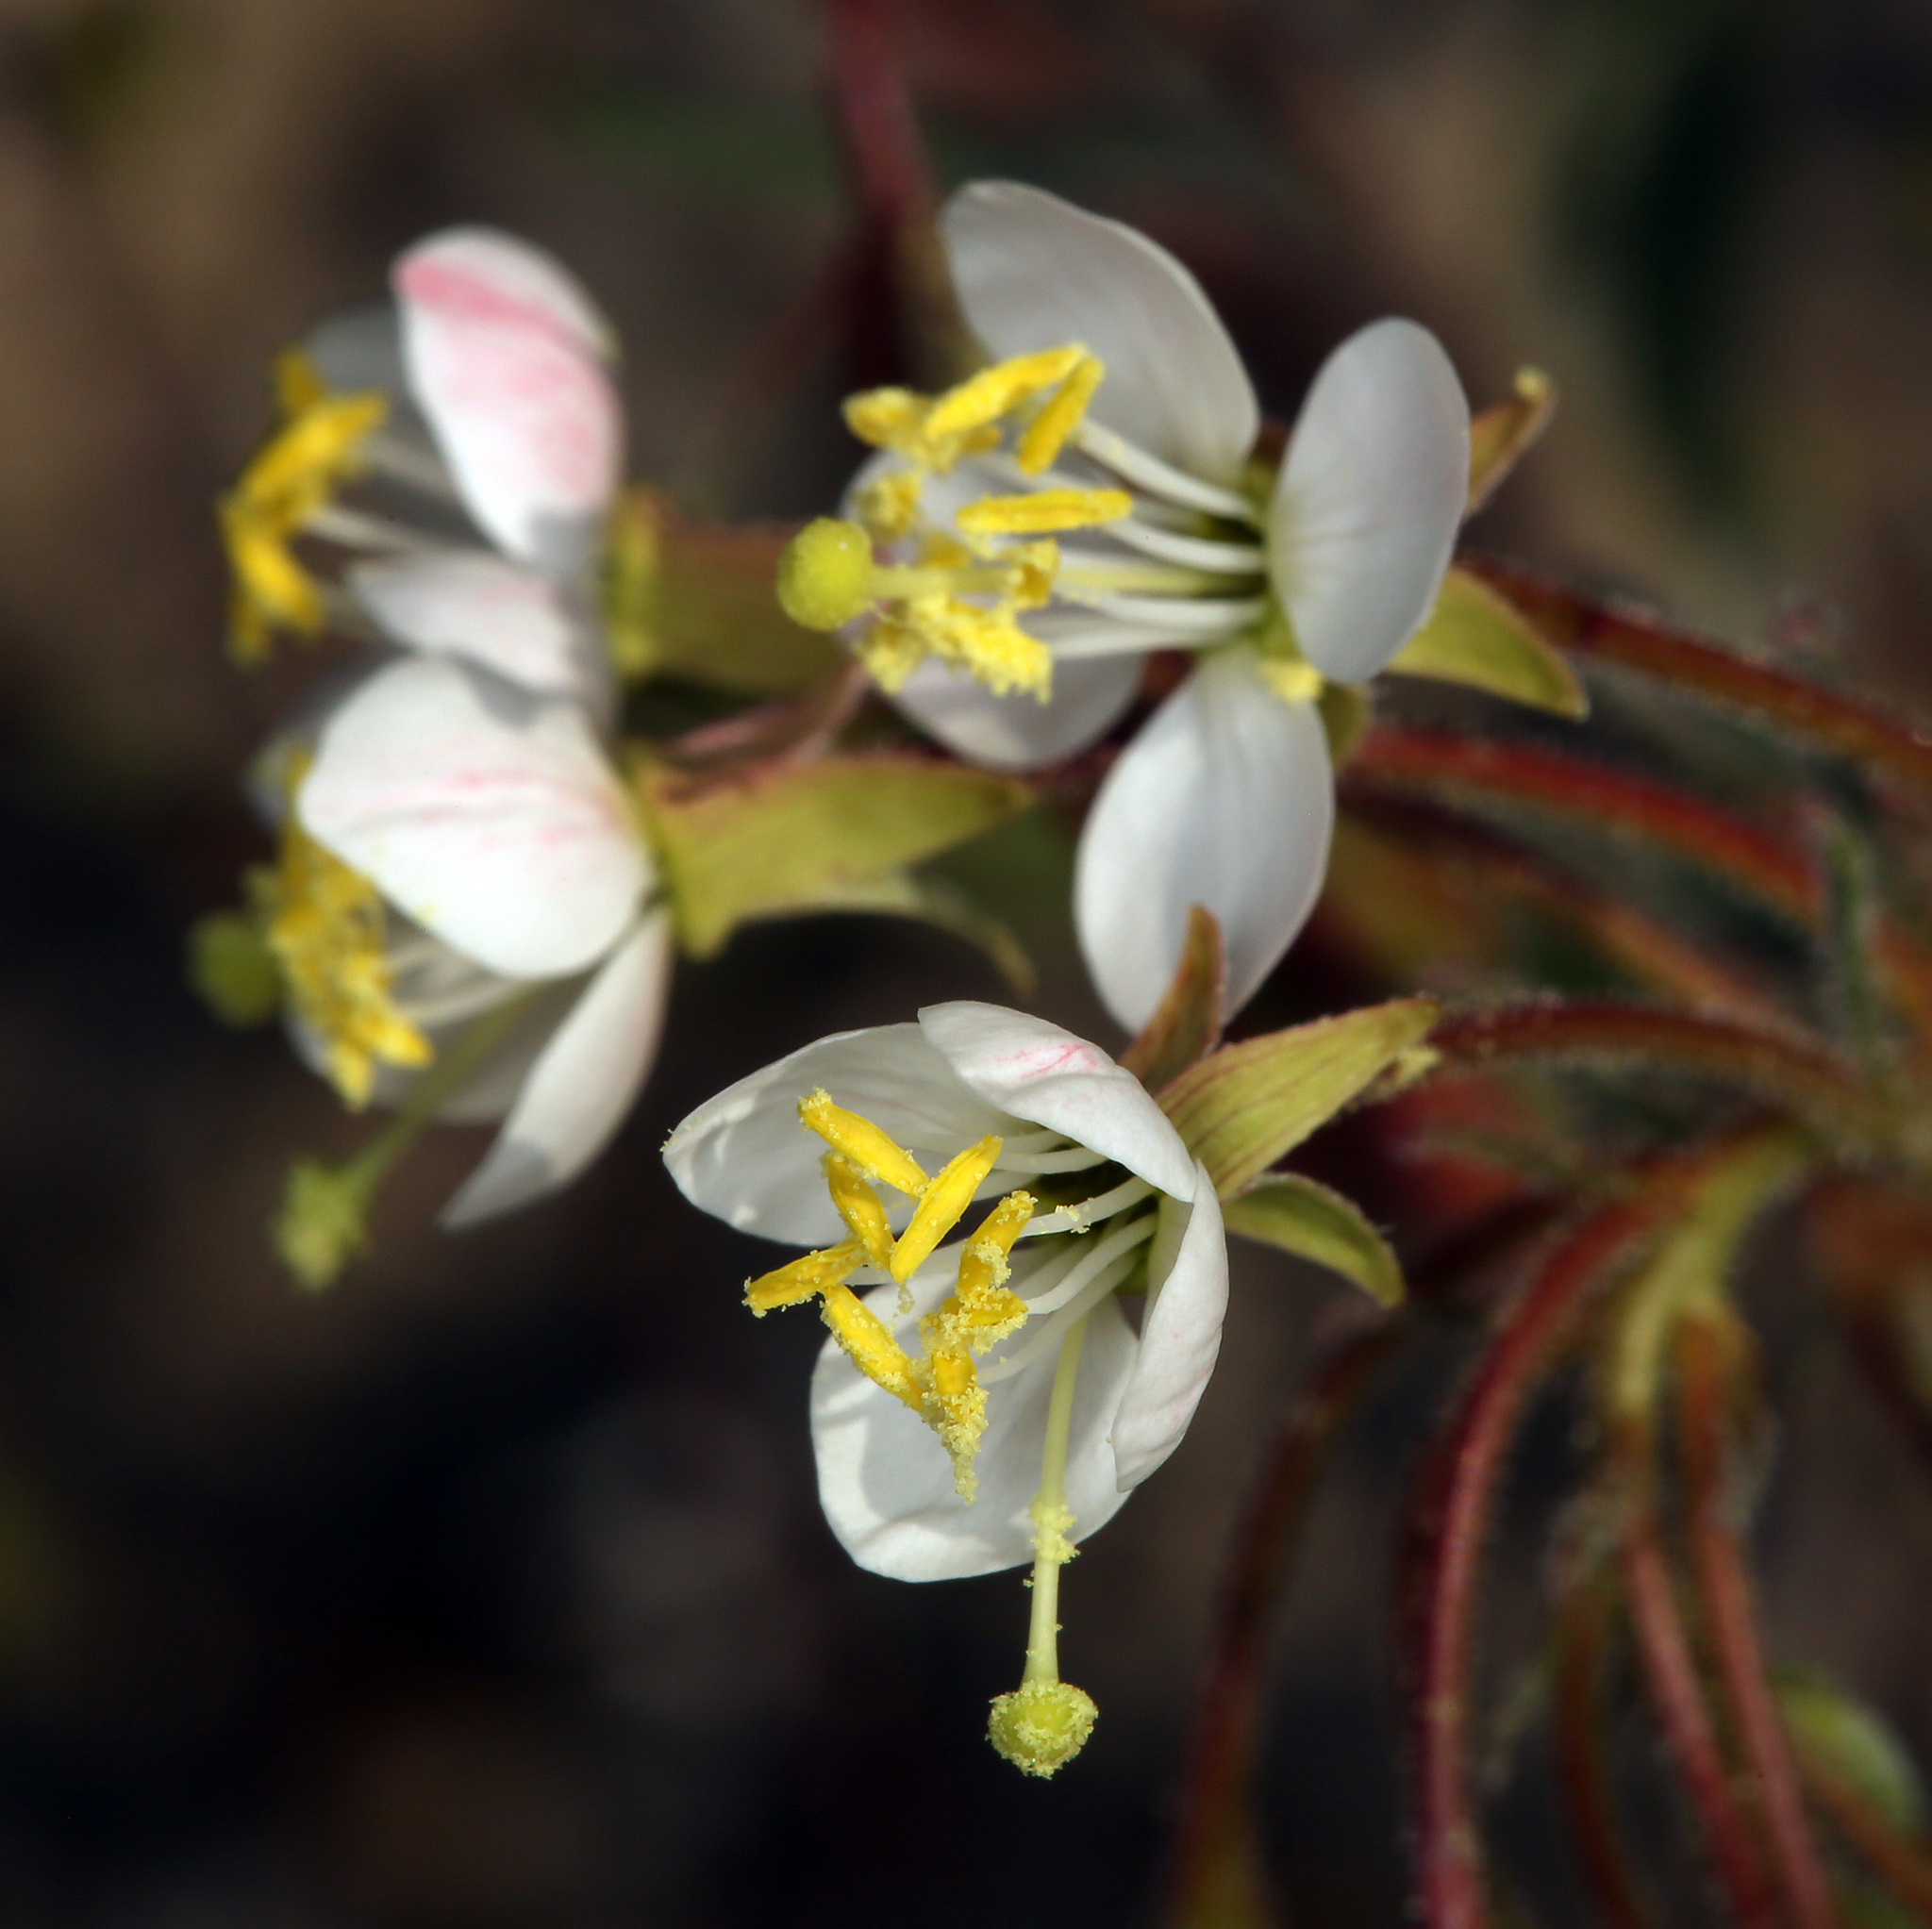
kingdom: Plantae
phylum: Tracheophyta
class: Magnoliopsida
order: Myrtales
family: Onagraceae
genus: Eremothera
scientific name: Eremothera refracta
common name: Narrowleaf suncup
